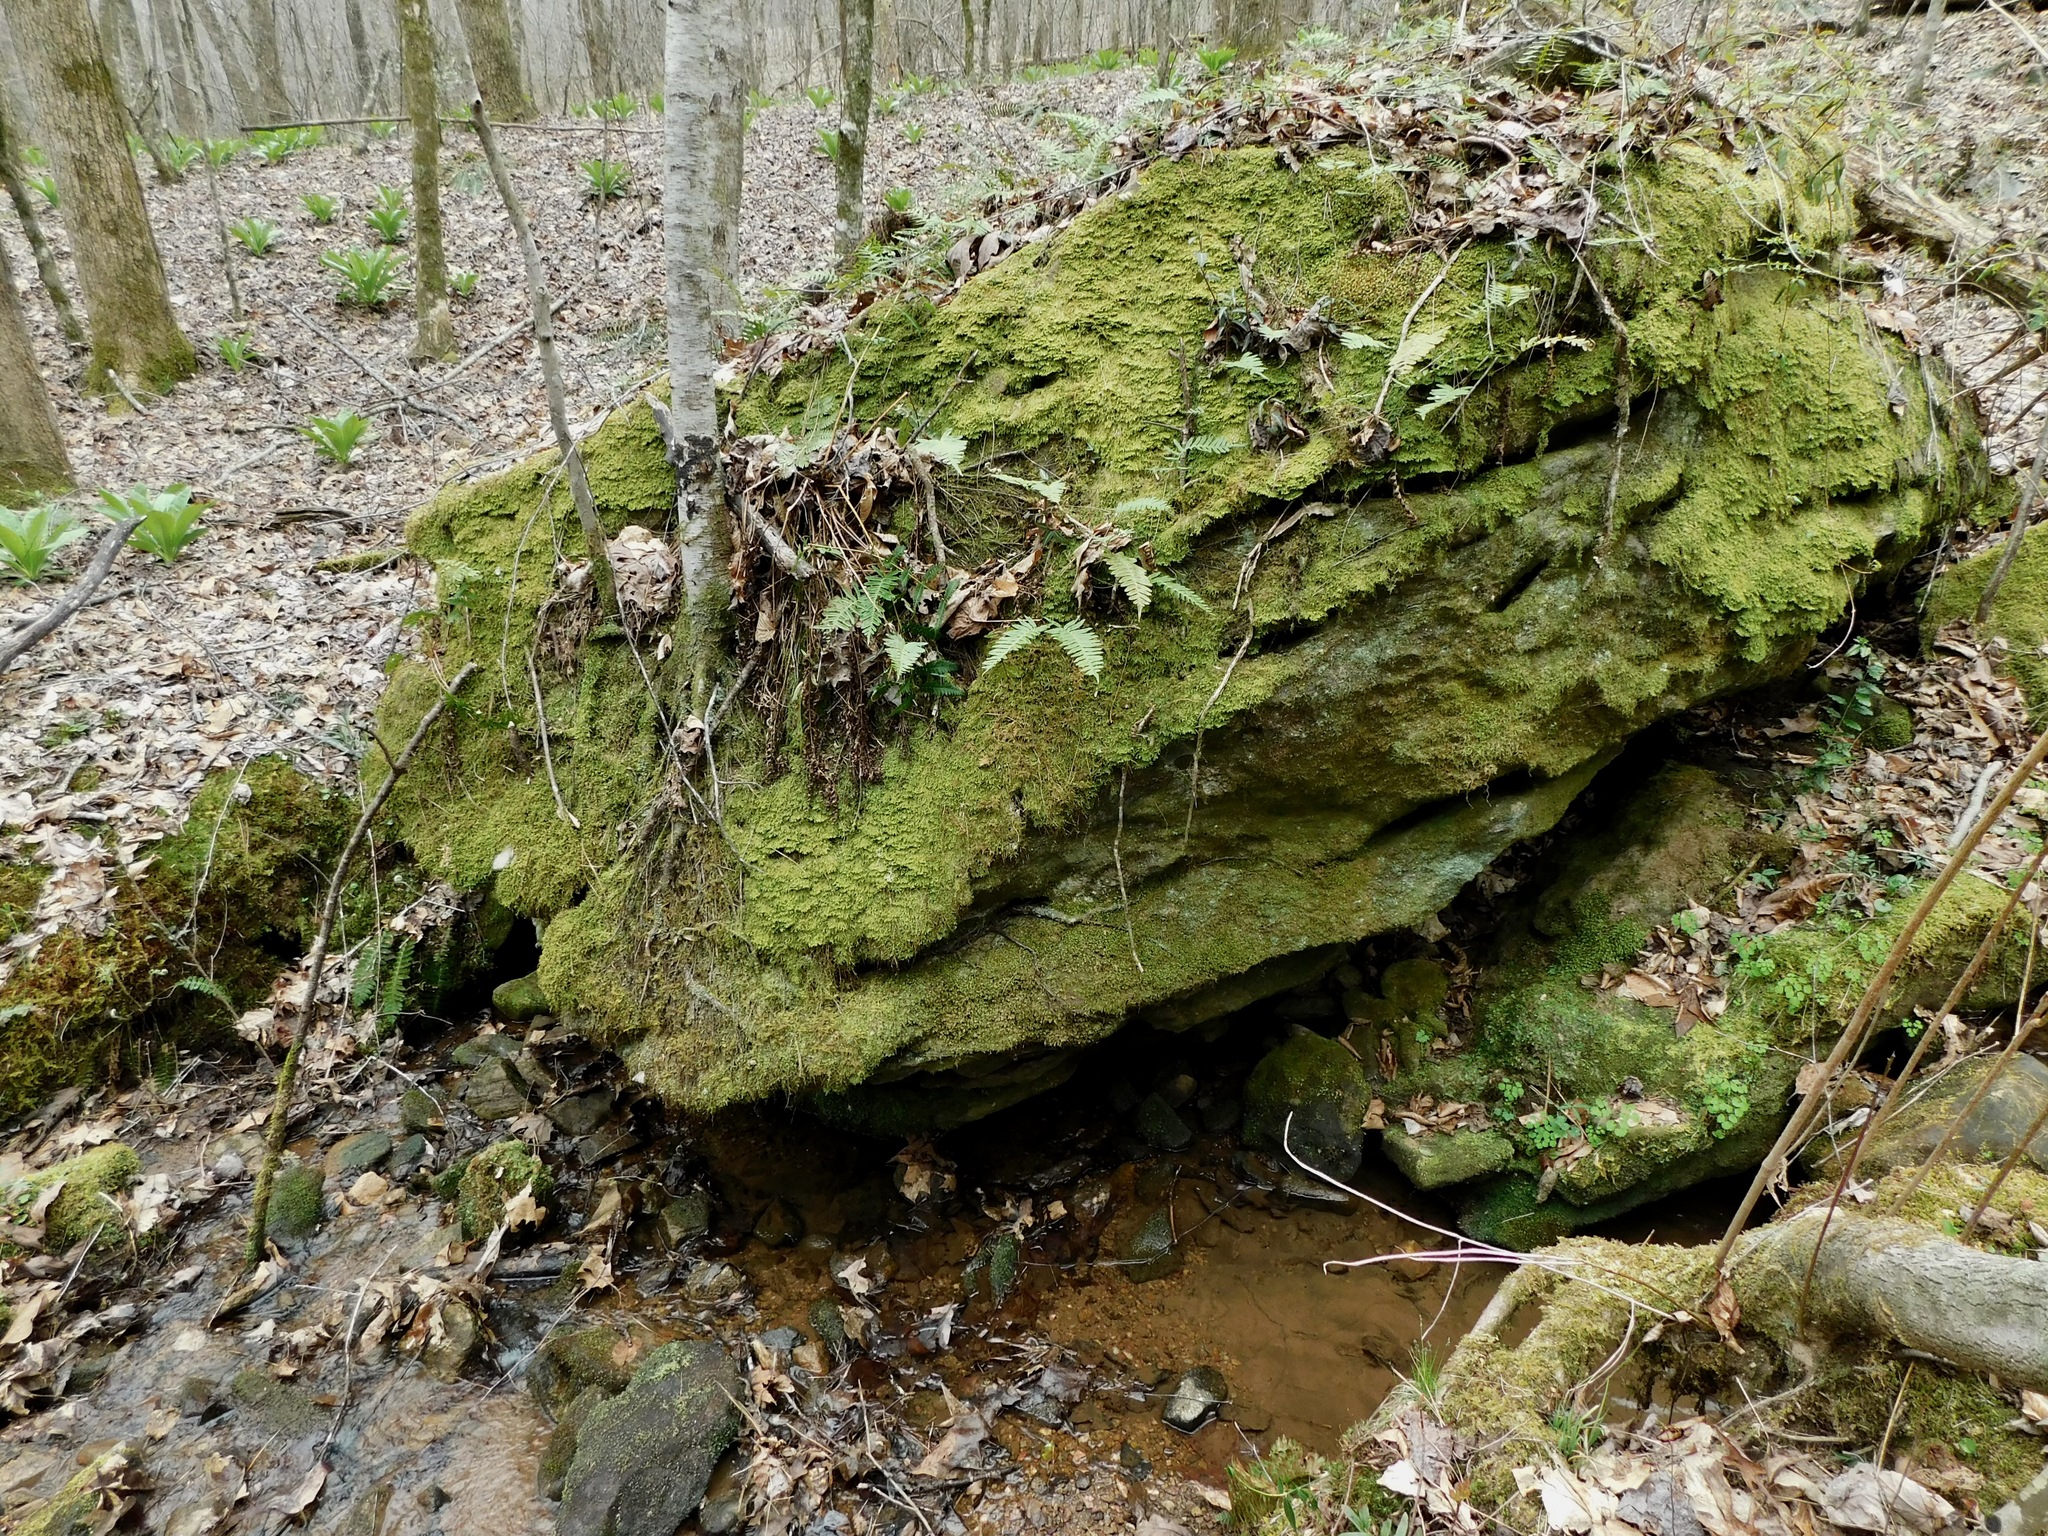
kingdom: Plantae
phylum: Tracheophyta
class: Polypodiopsida
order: Polypodiales
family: Polypodiaceae
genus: Polypodium
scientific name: Polypodium virginianum
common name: American wall fern
